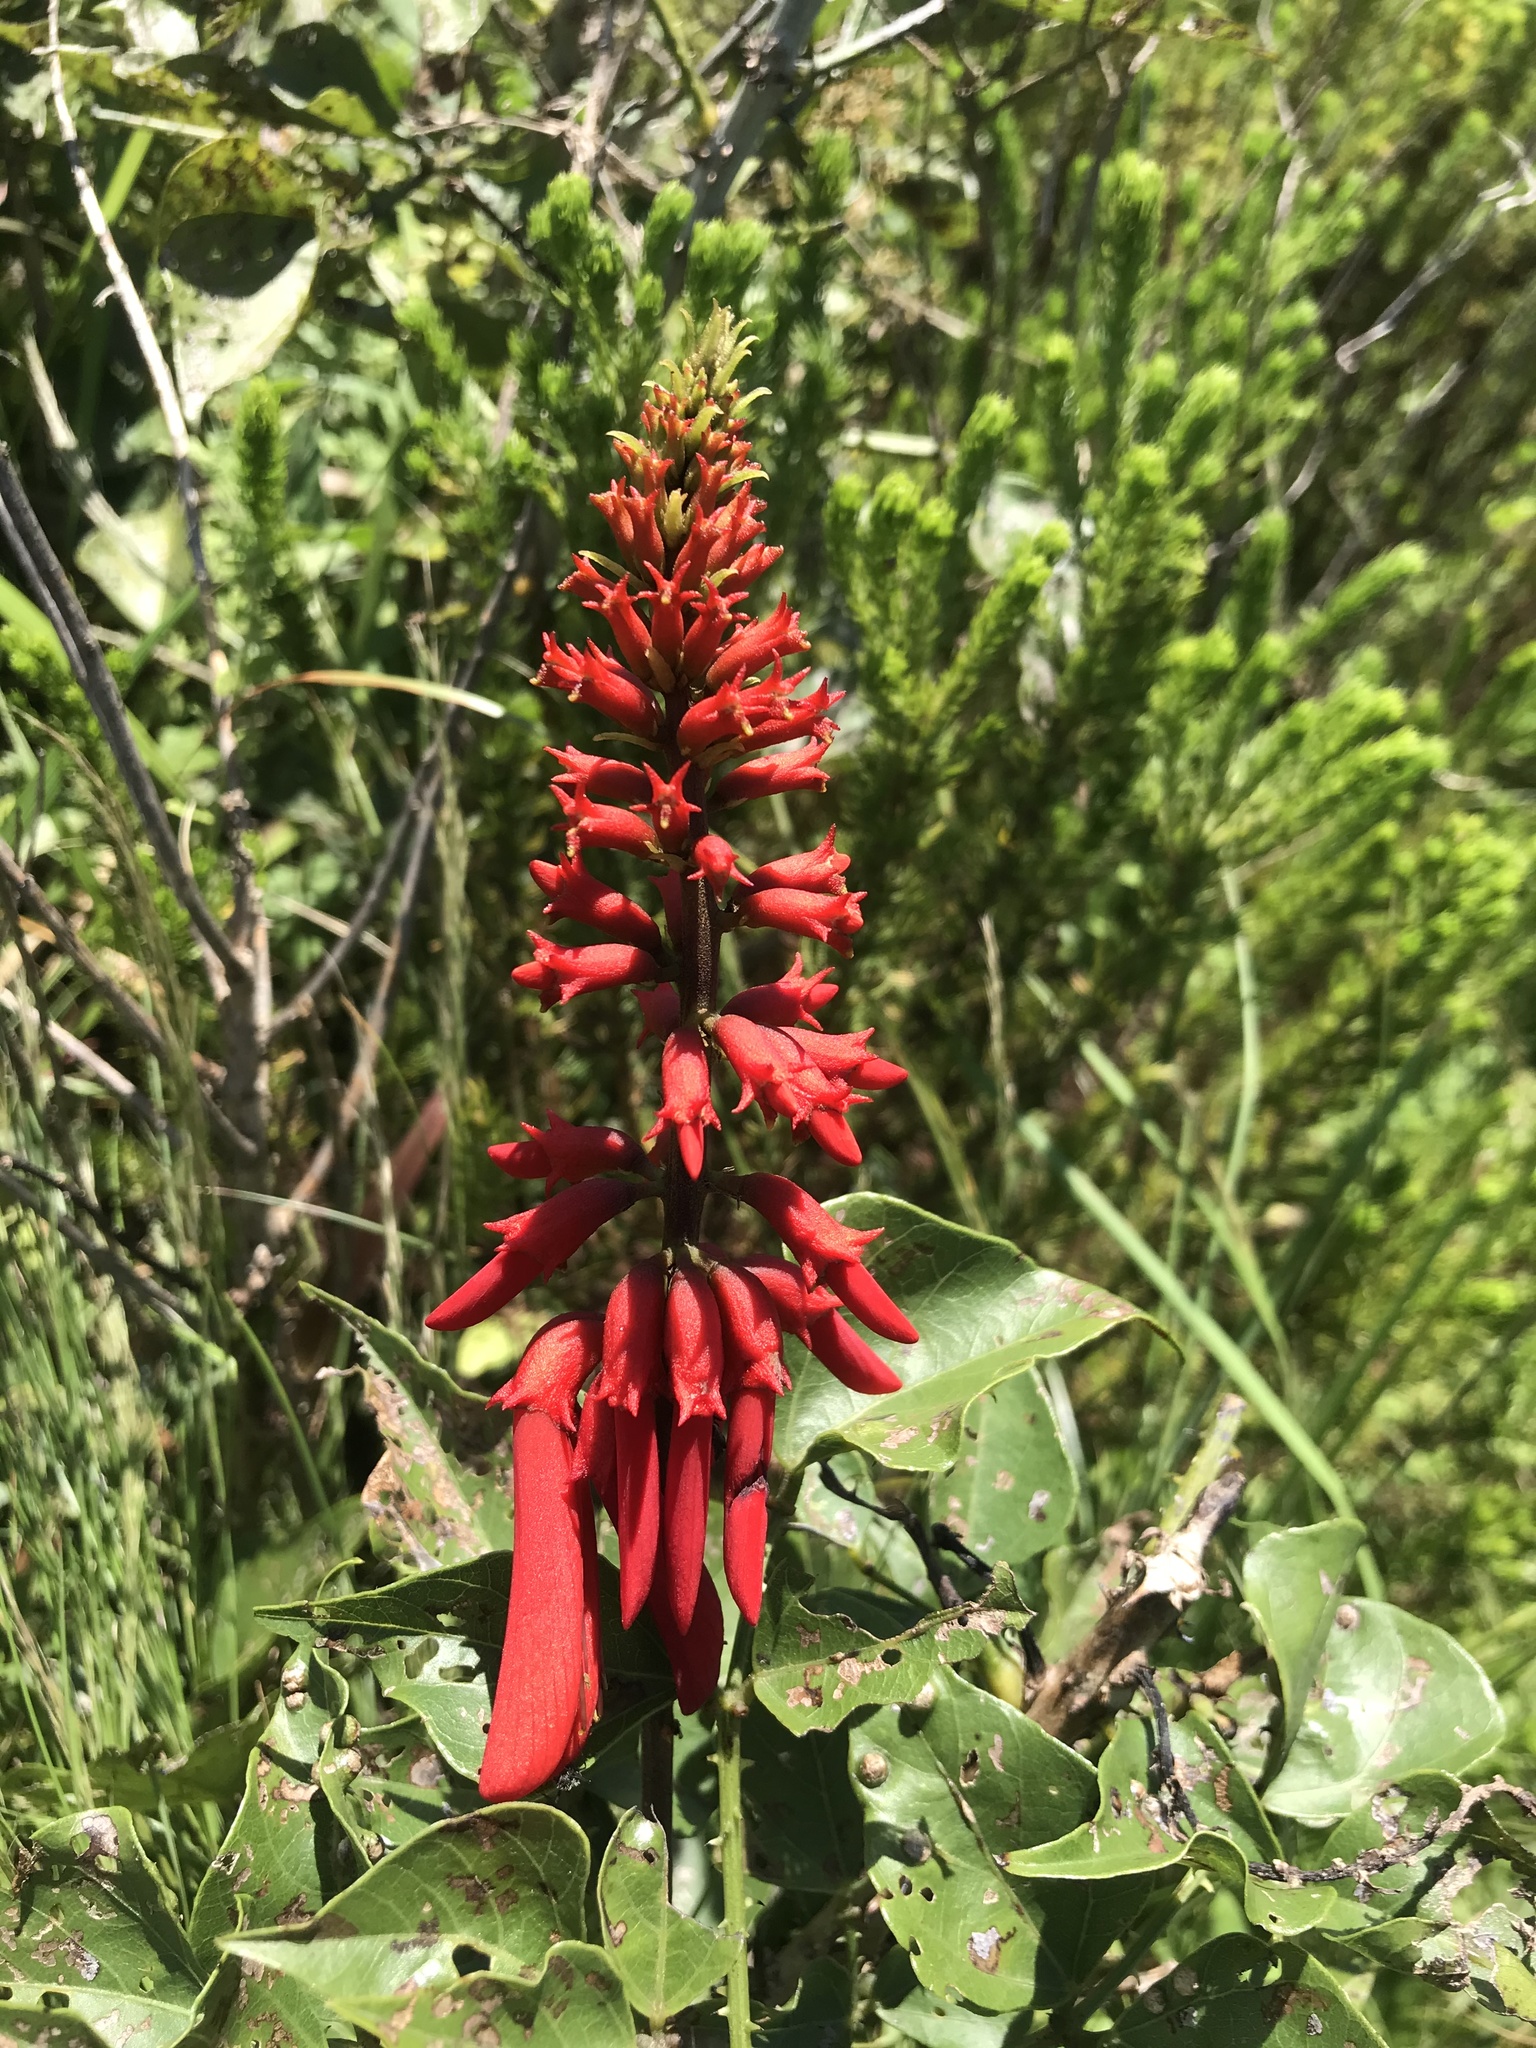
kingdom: Plantae
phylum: Tracheophyta
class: Magnoliopsida
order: Fabales
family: Fabaceae
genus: Erythrina
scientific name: Erythrina humeana
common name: Dwarf coral tree
